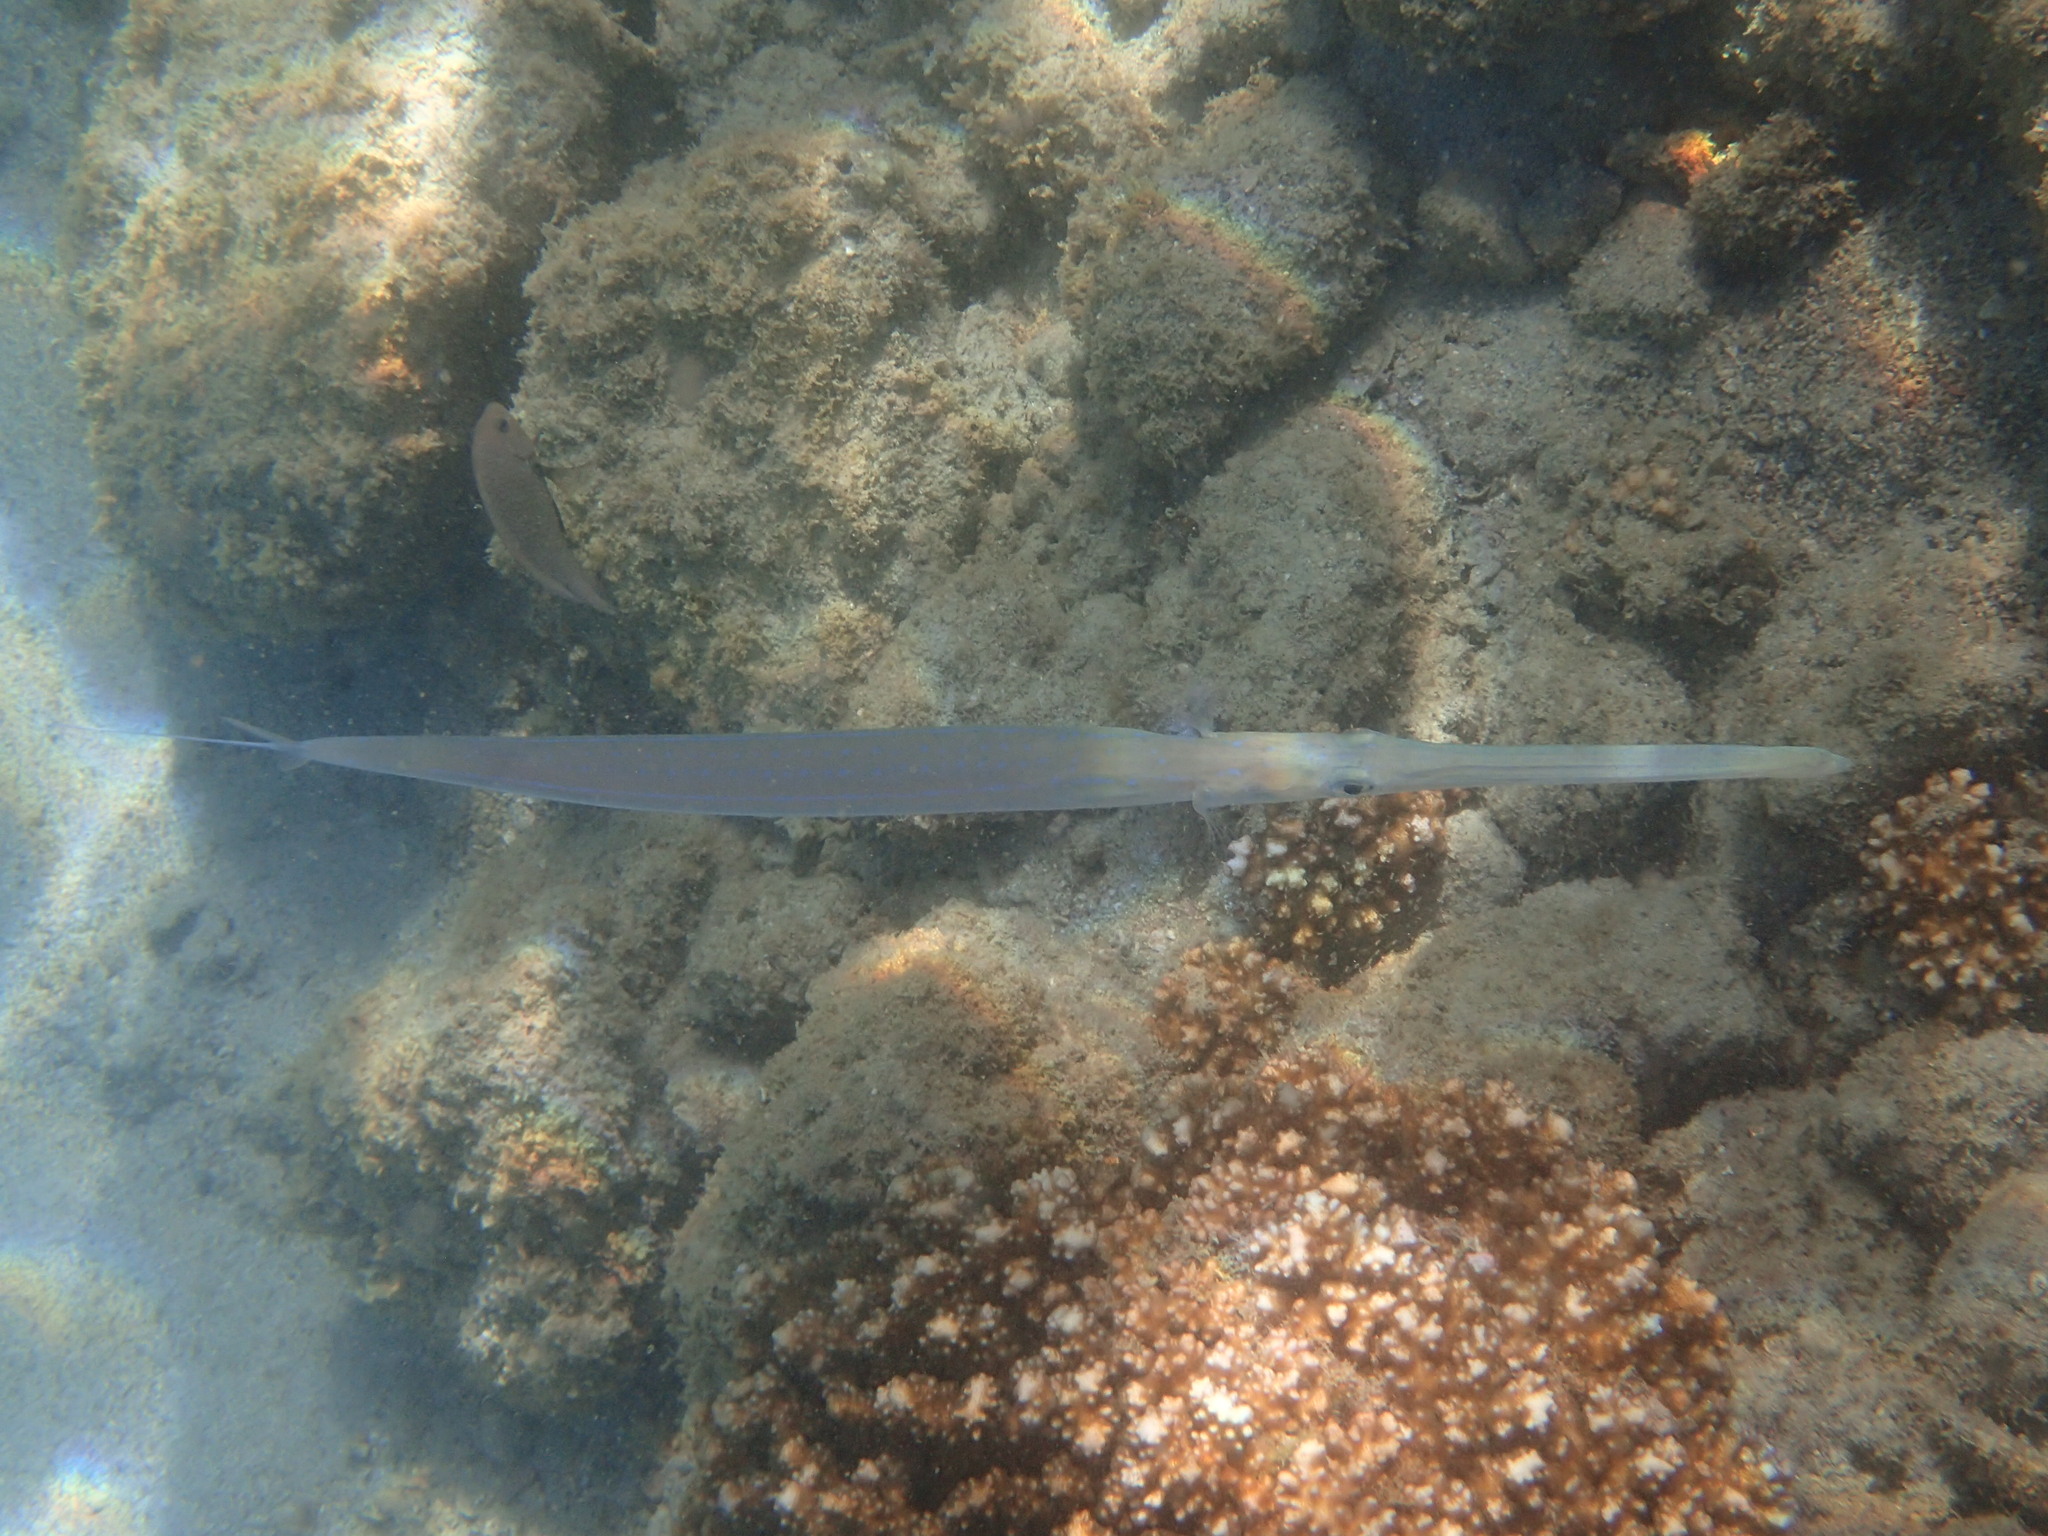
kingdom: Animalia
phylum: Chordata
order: Syngnathiformes
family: Fistulariidae
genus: Fistularia
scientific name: Fistularia commersonii
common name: Bluespotted cornetfish
